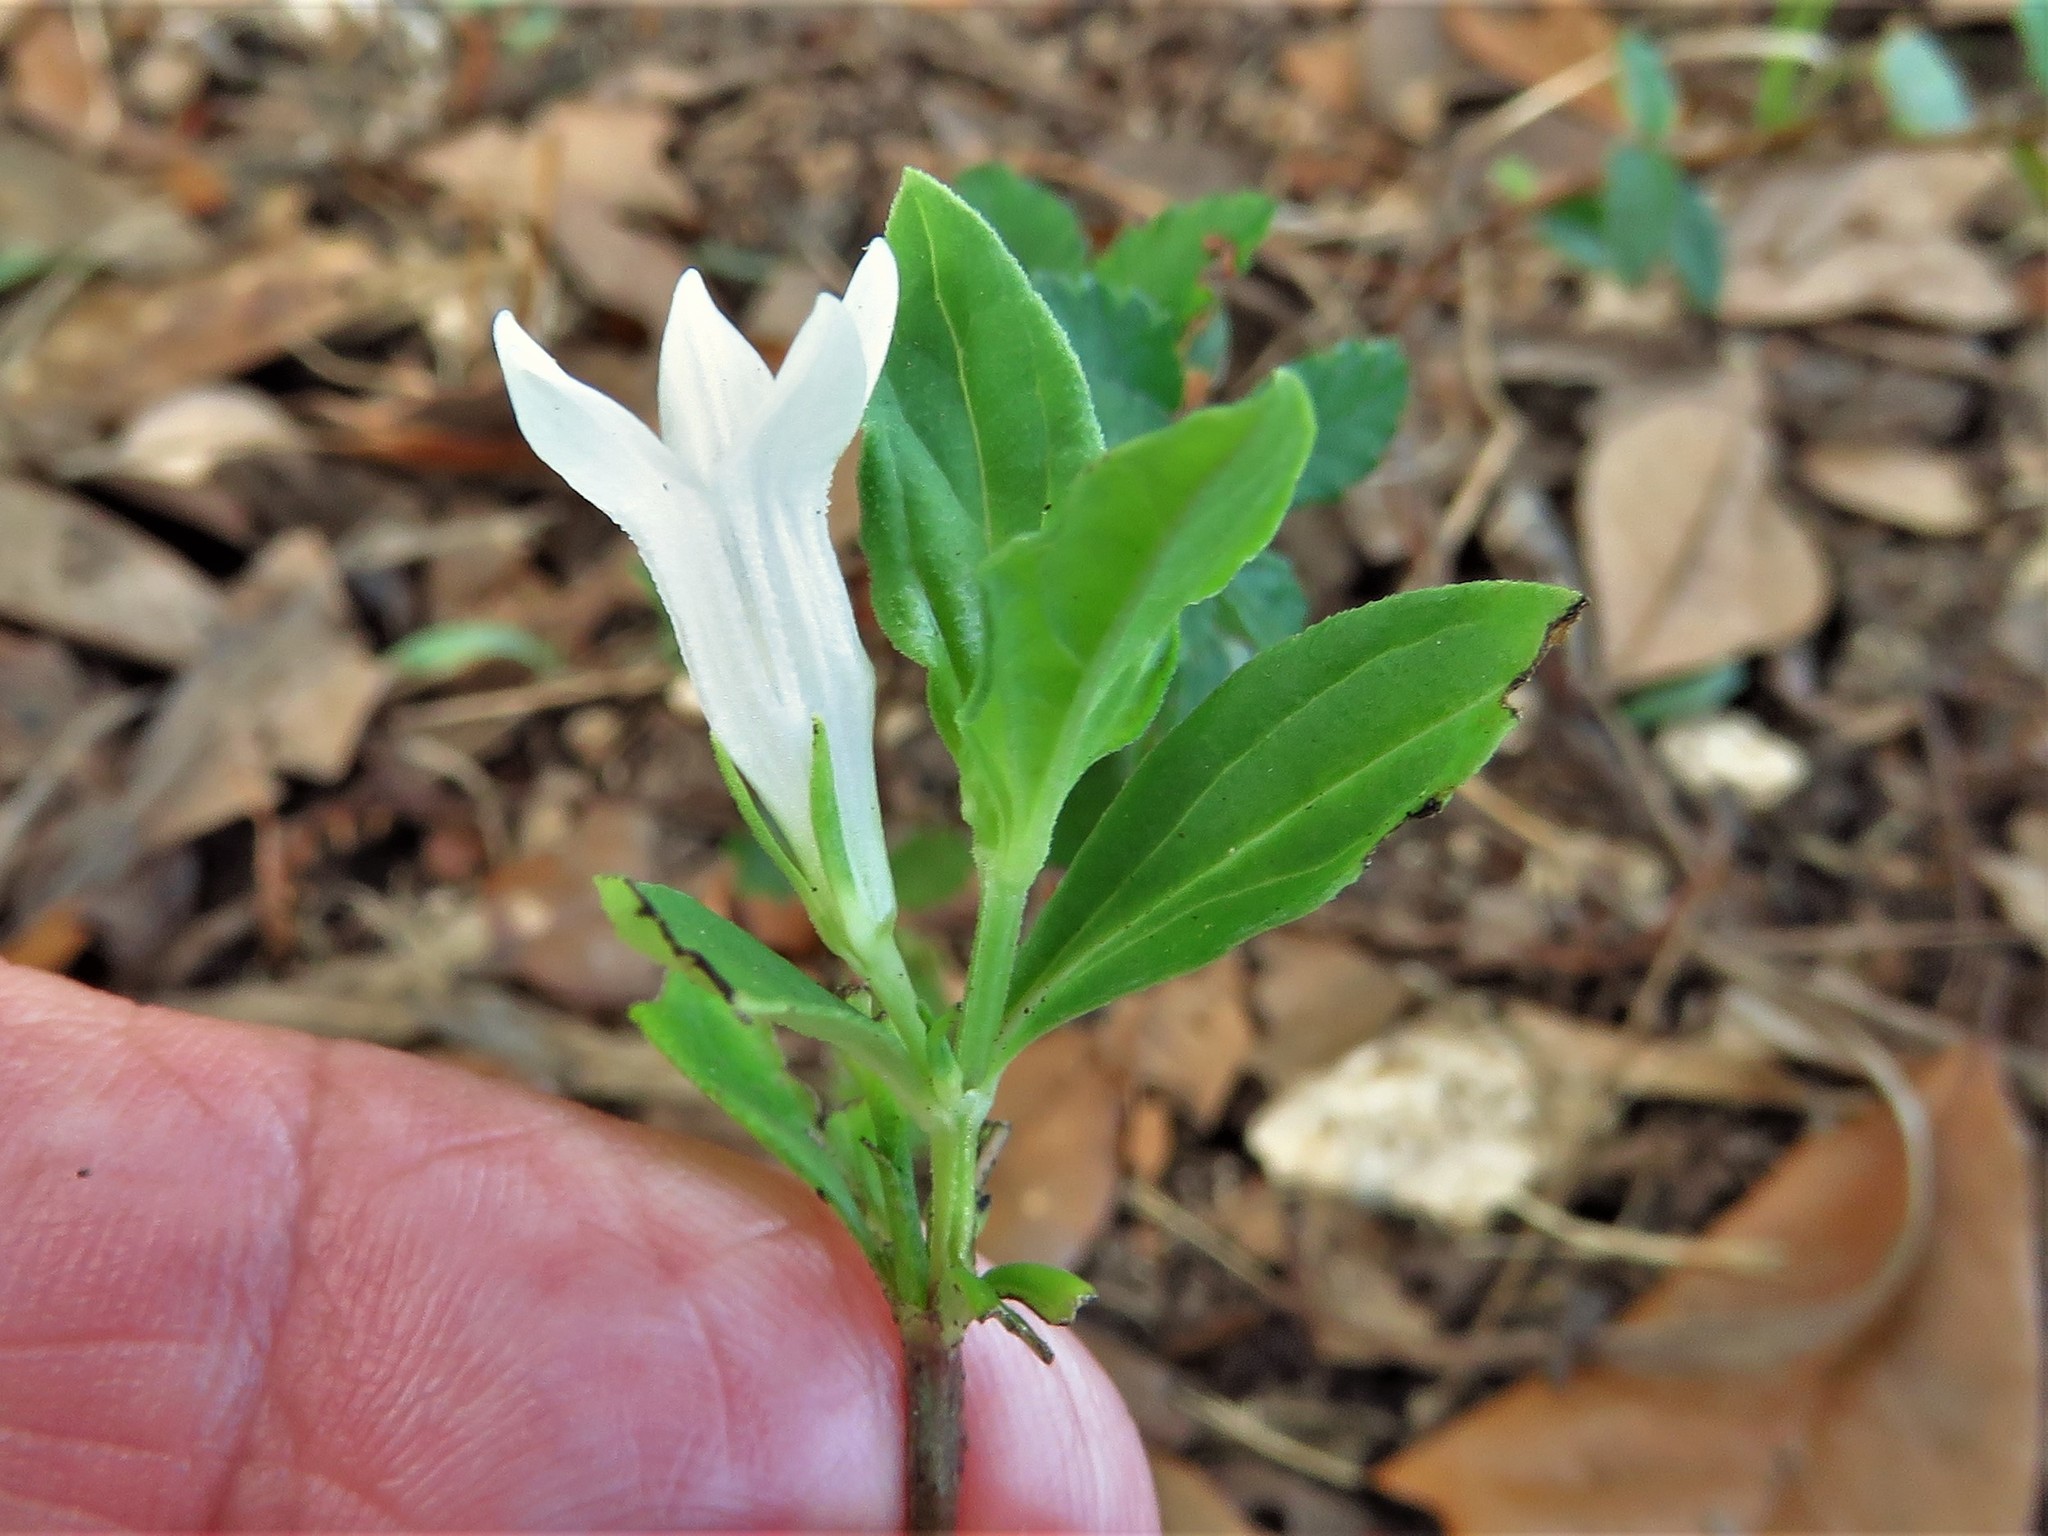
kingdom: Plantae
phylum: Tracheophyta
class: Magnoliopsida
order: Gentianales
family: Loganiaceae
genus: Spigelia
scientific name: Spigelia texana
